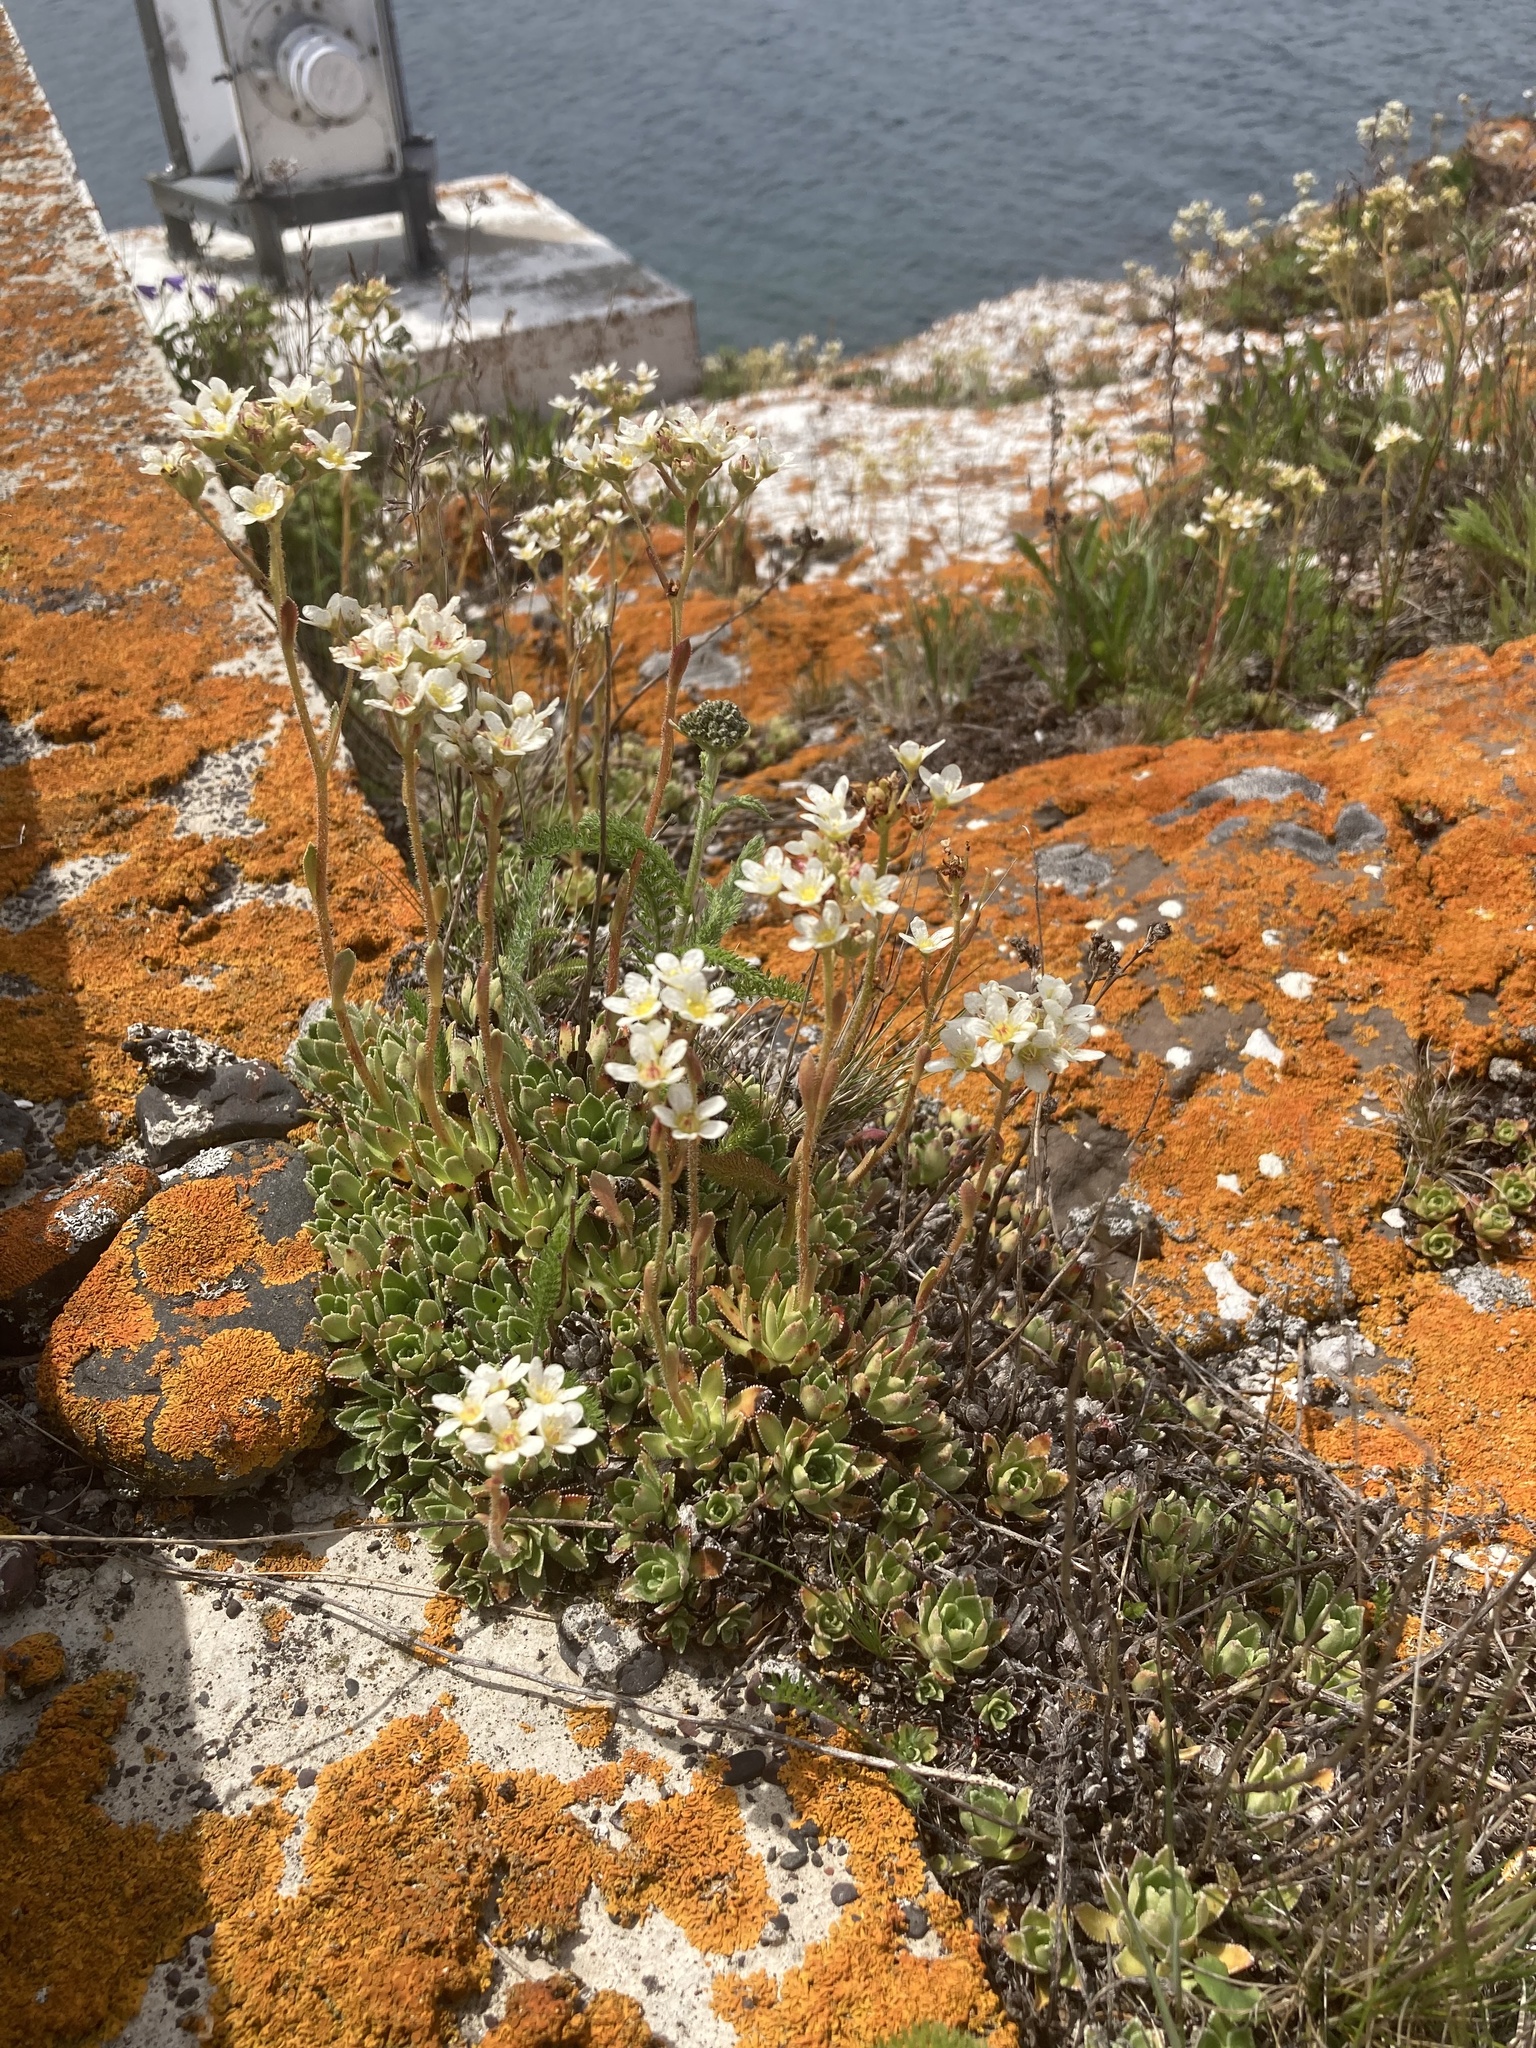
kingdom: Plantae
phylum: Tracheophyta
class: Magnoliopsida
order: Saxifragales
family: Saxifragaceae
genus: Saxifraga
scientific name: Saxifraga paniculata
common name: Livelong saxifrage
